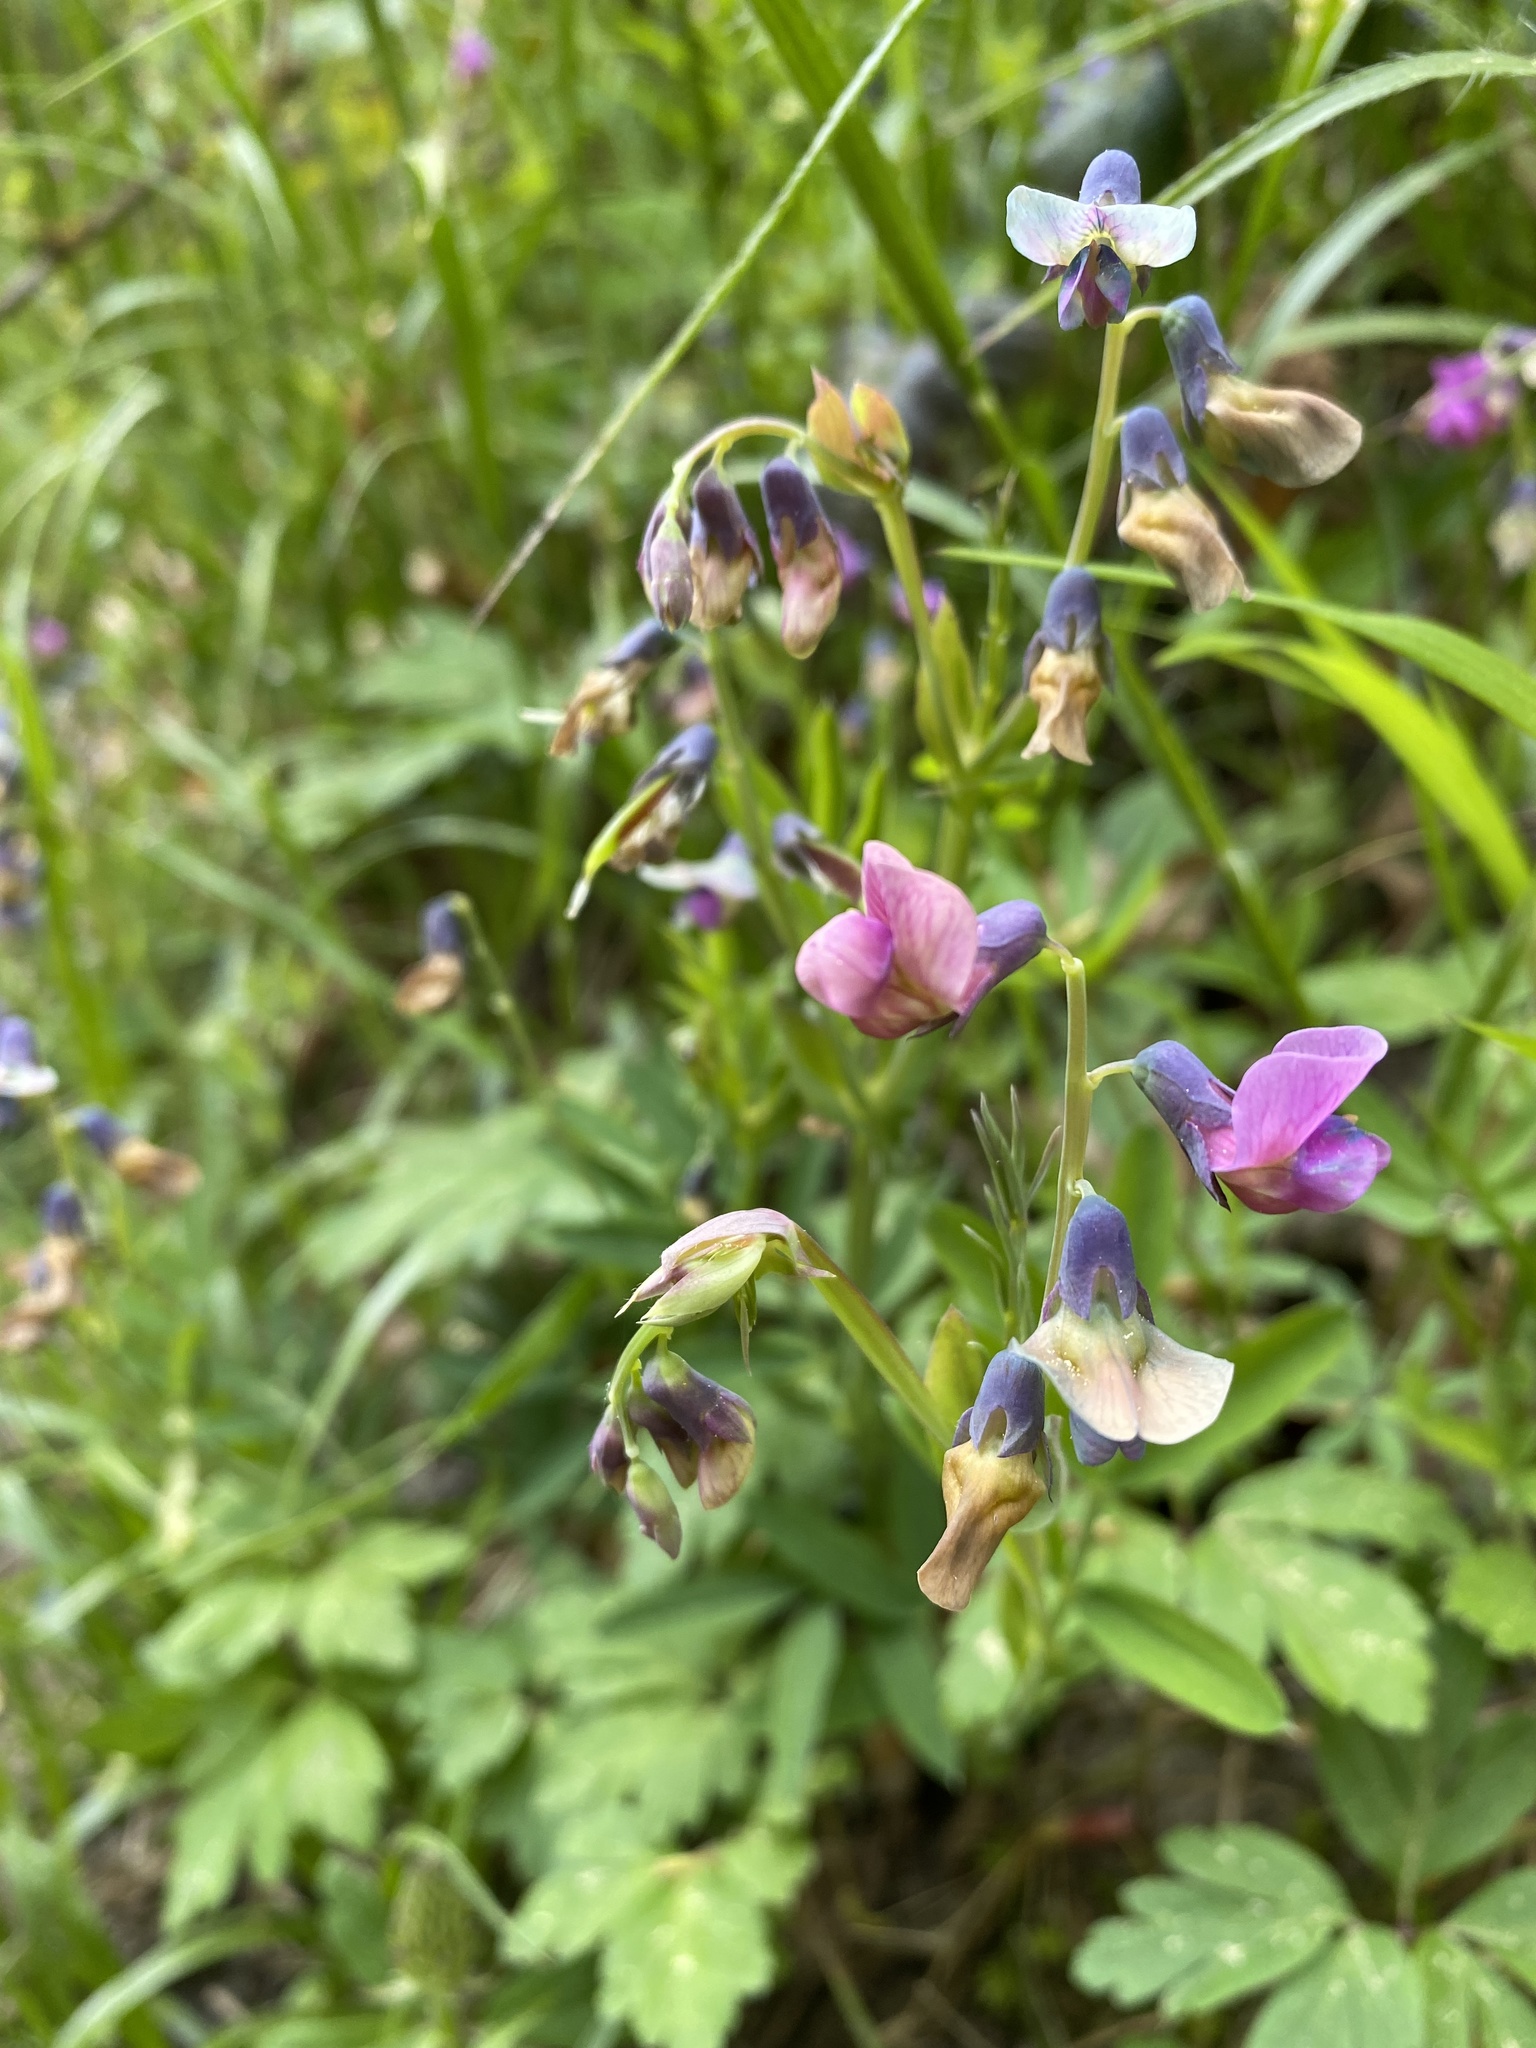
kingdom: Plantae
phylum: Tracheophyta
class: Magnoliopsida
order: Fabales
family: Fabaceae
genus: Lathyrus
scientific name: Lathyrus linifolius
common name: Bitter-vetch
